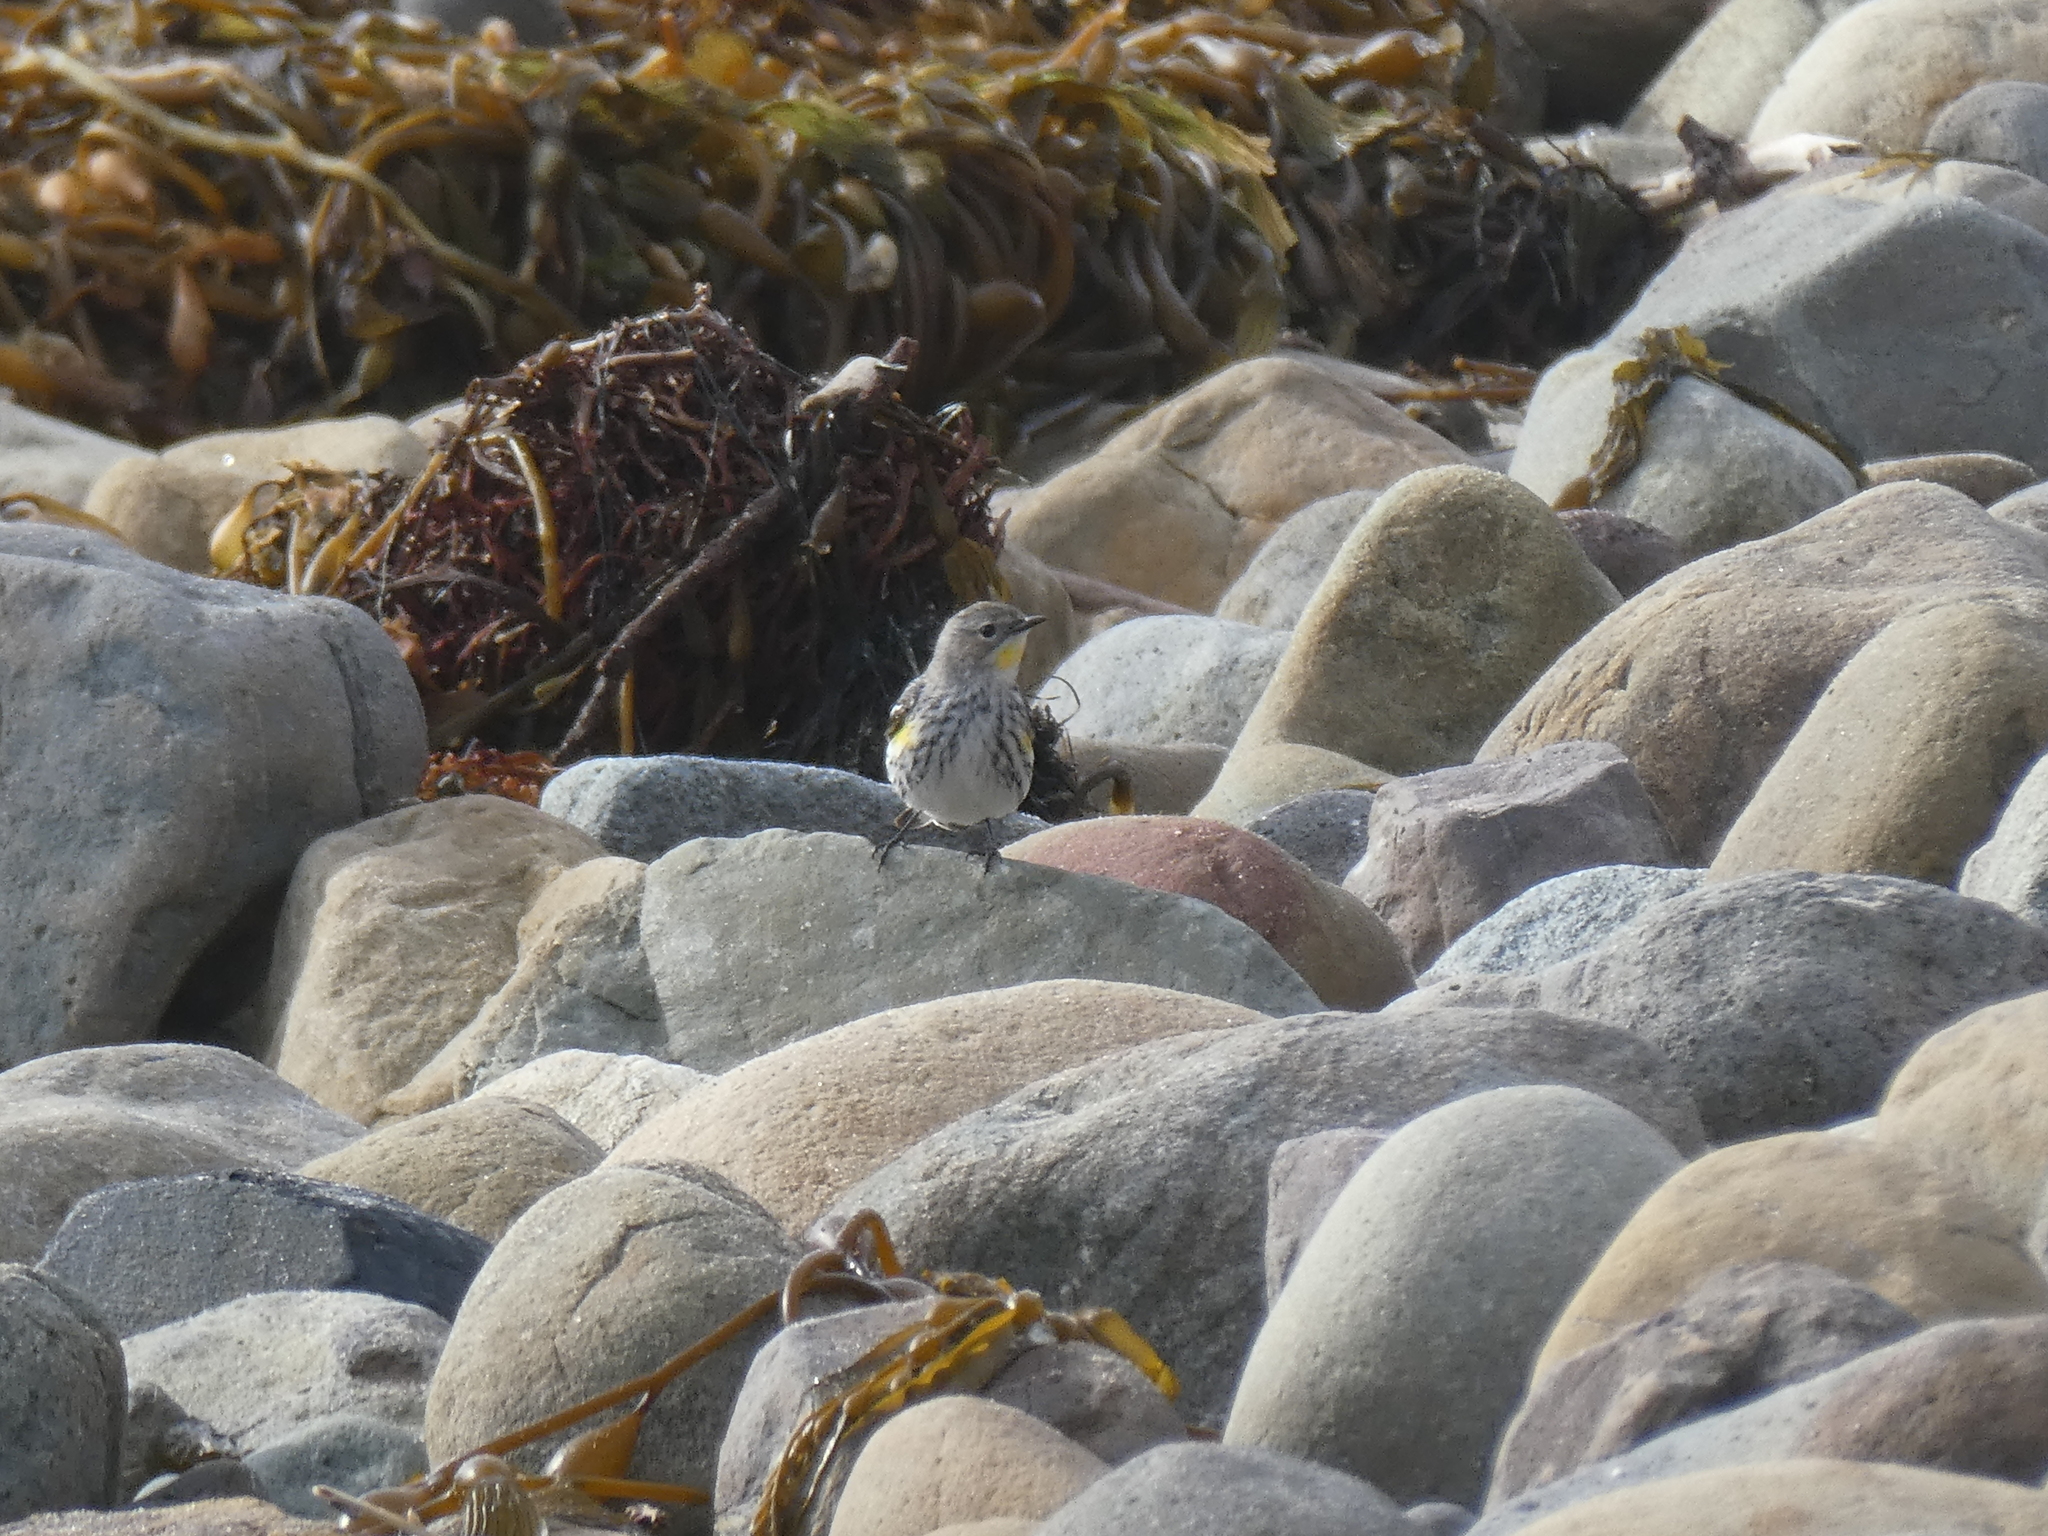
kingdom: Animalia
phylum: Chordata
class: Aves
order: Passeriformes
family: Parulidae
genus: Setophaga
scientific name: Setophaga coronata
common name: Myrtle warbler
